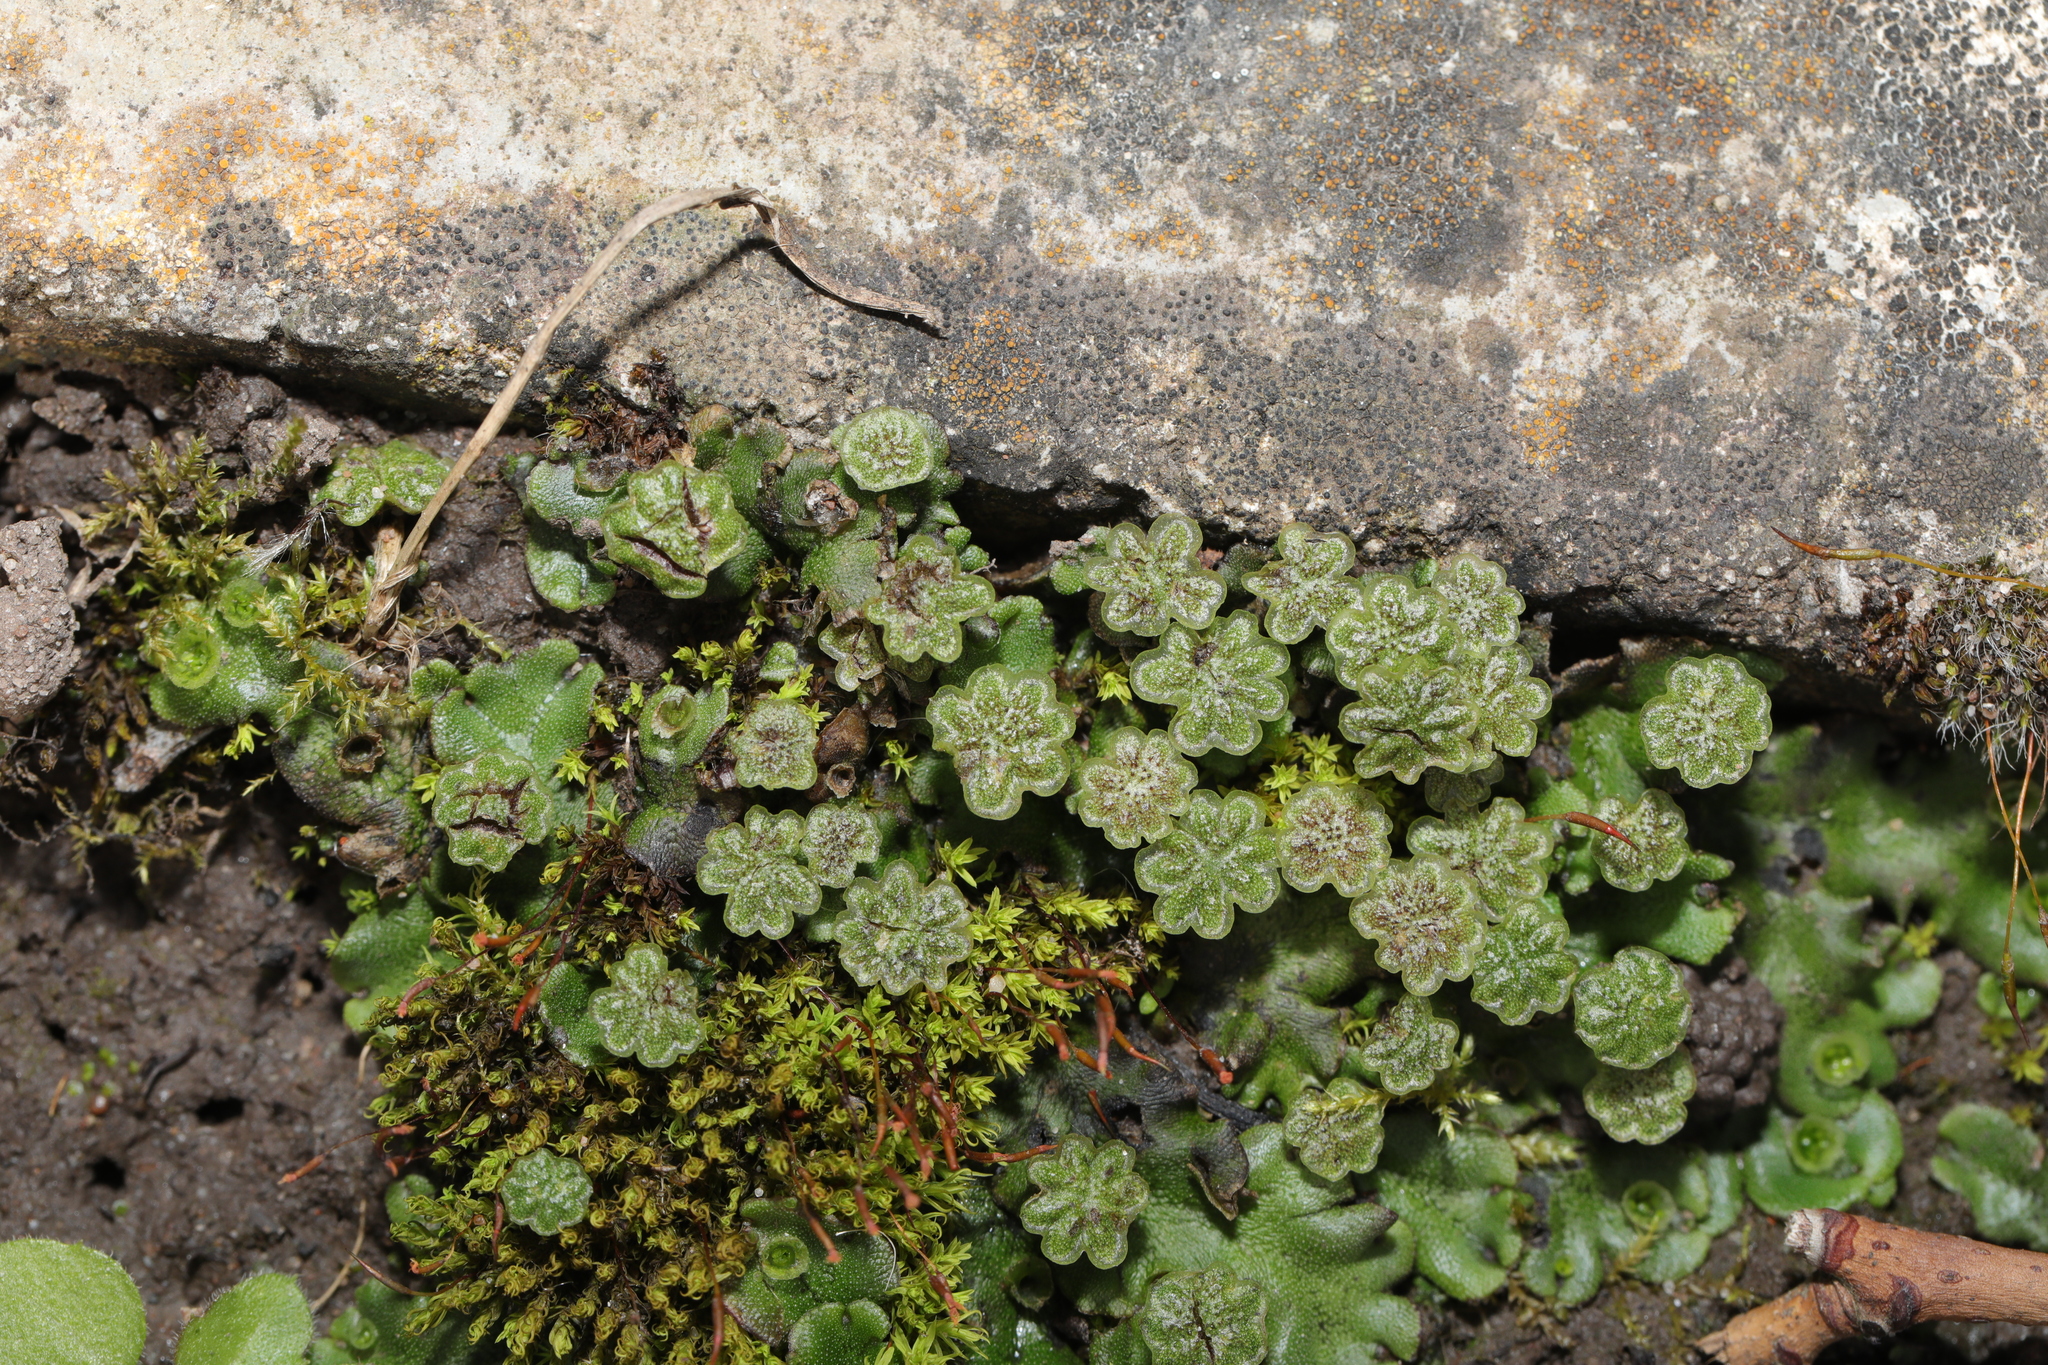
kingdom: Plantae
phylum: Marchantiophyta
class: Marchantiopsida
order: Marchantiales
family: Marchantiaceae
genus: Marchantia
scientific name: Marchantia polymorpha
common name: Common liverwort
